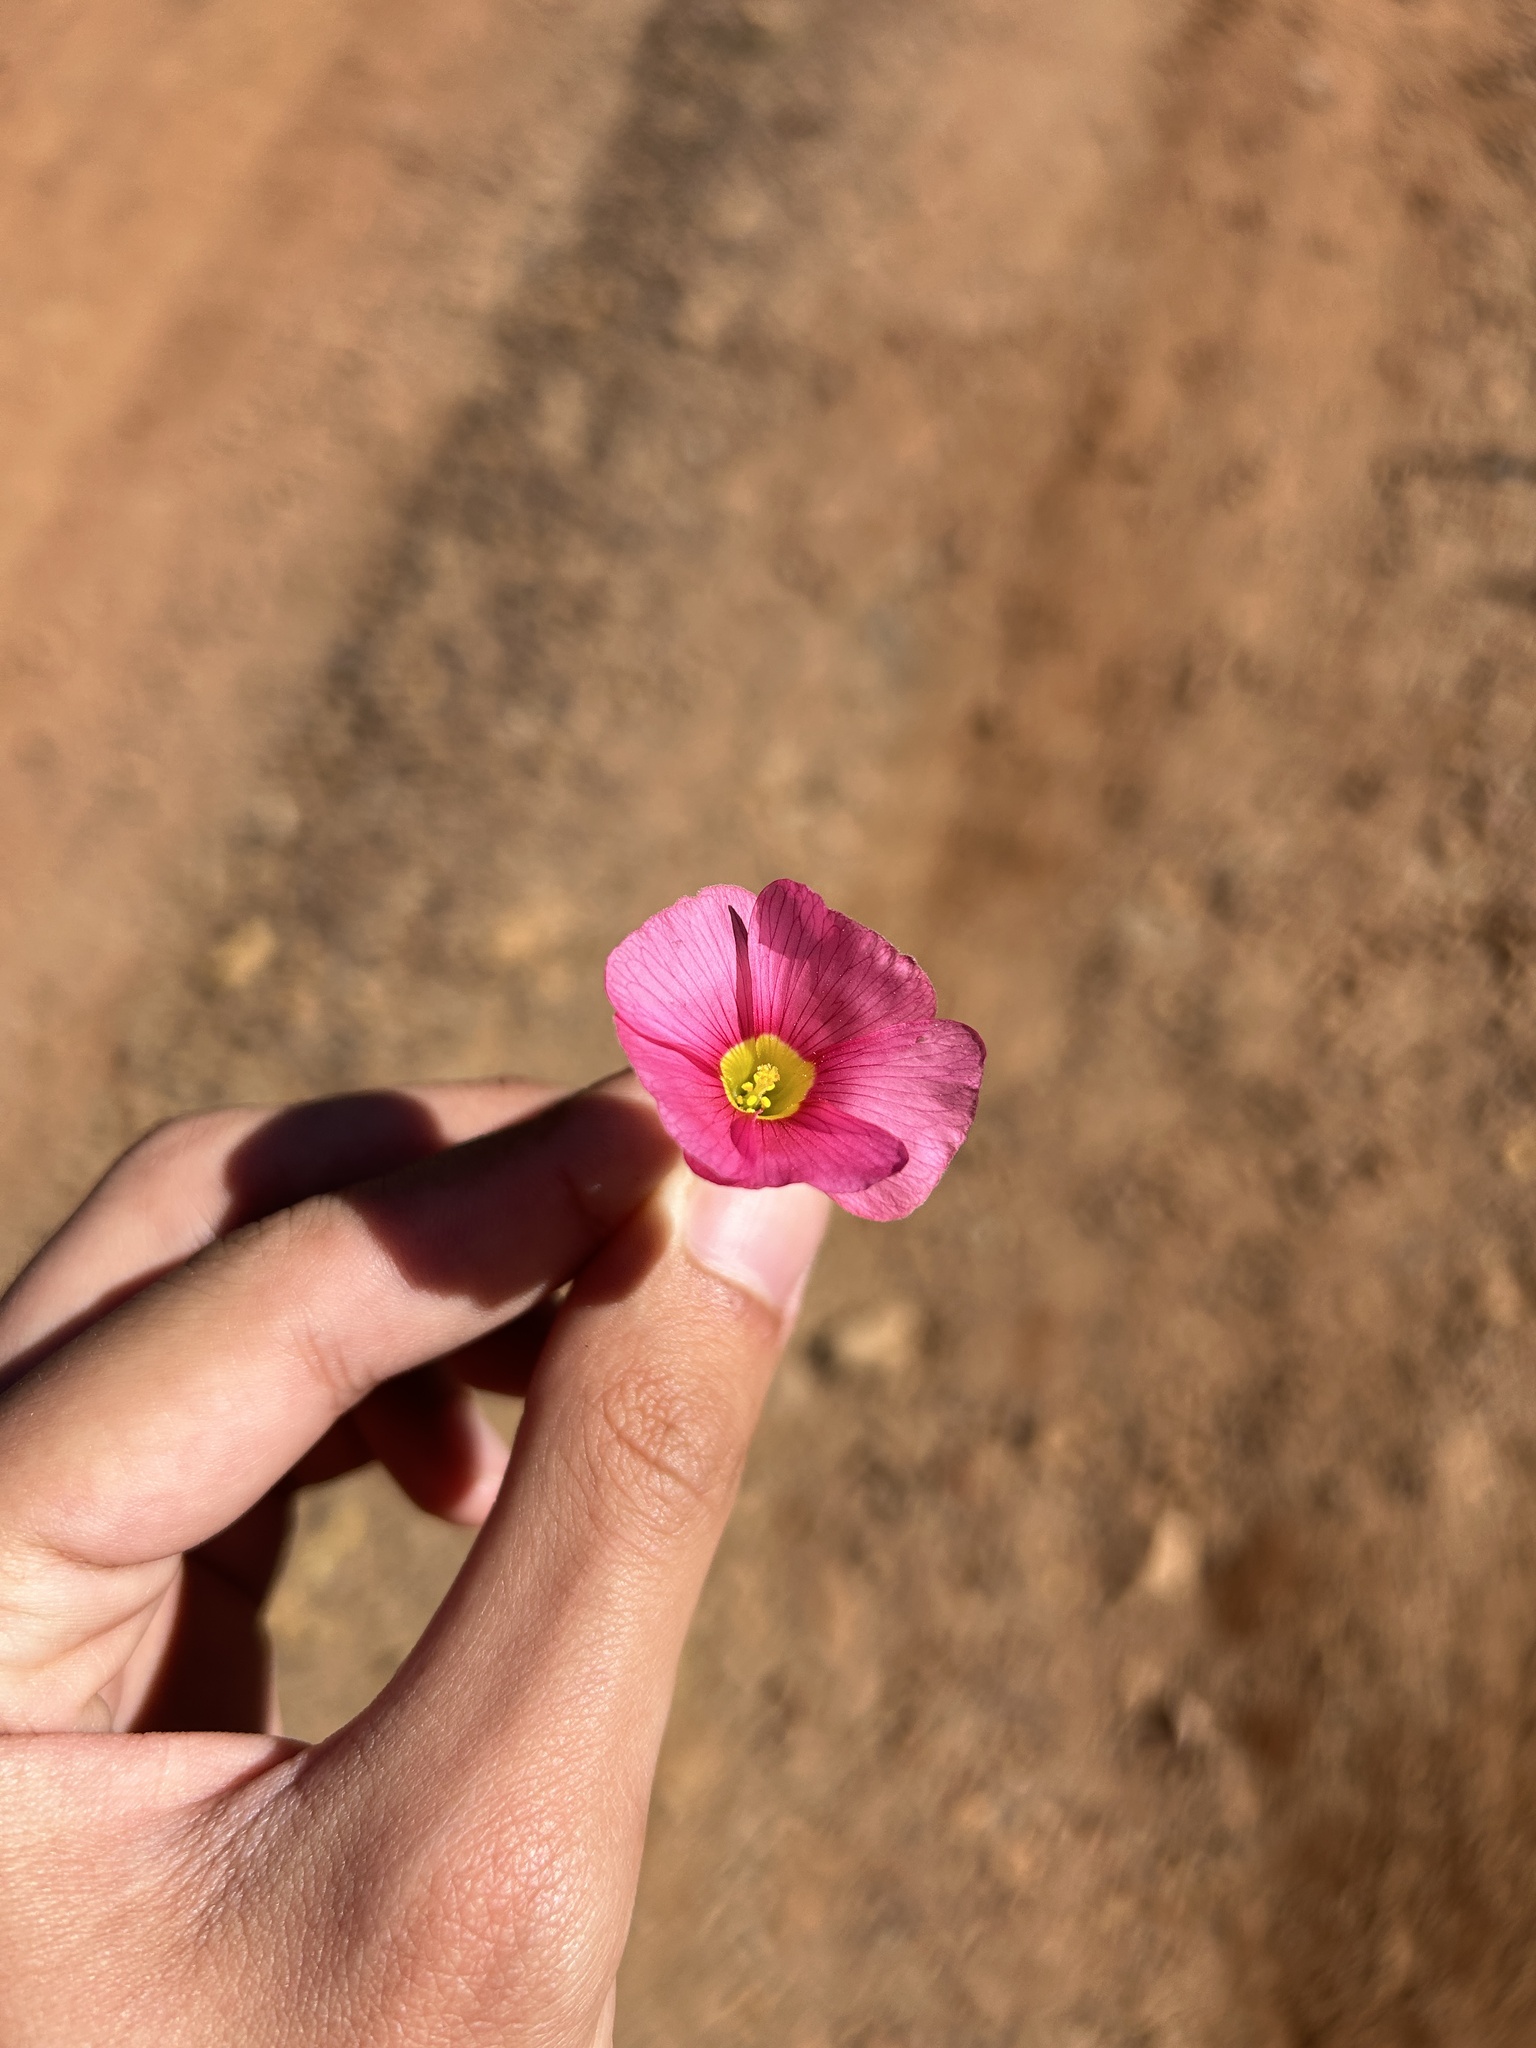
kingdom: Plantae
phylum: Tracheophyta
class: Magnoliopsida
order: Oxalidales
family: Oxalidaceae
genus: Oxalis
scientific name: Oxalis obtusa
